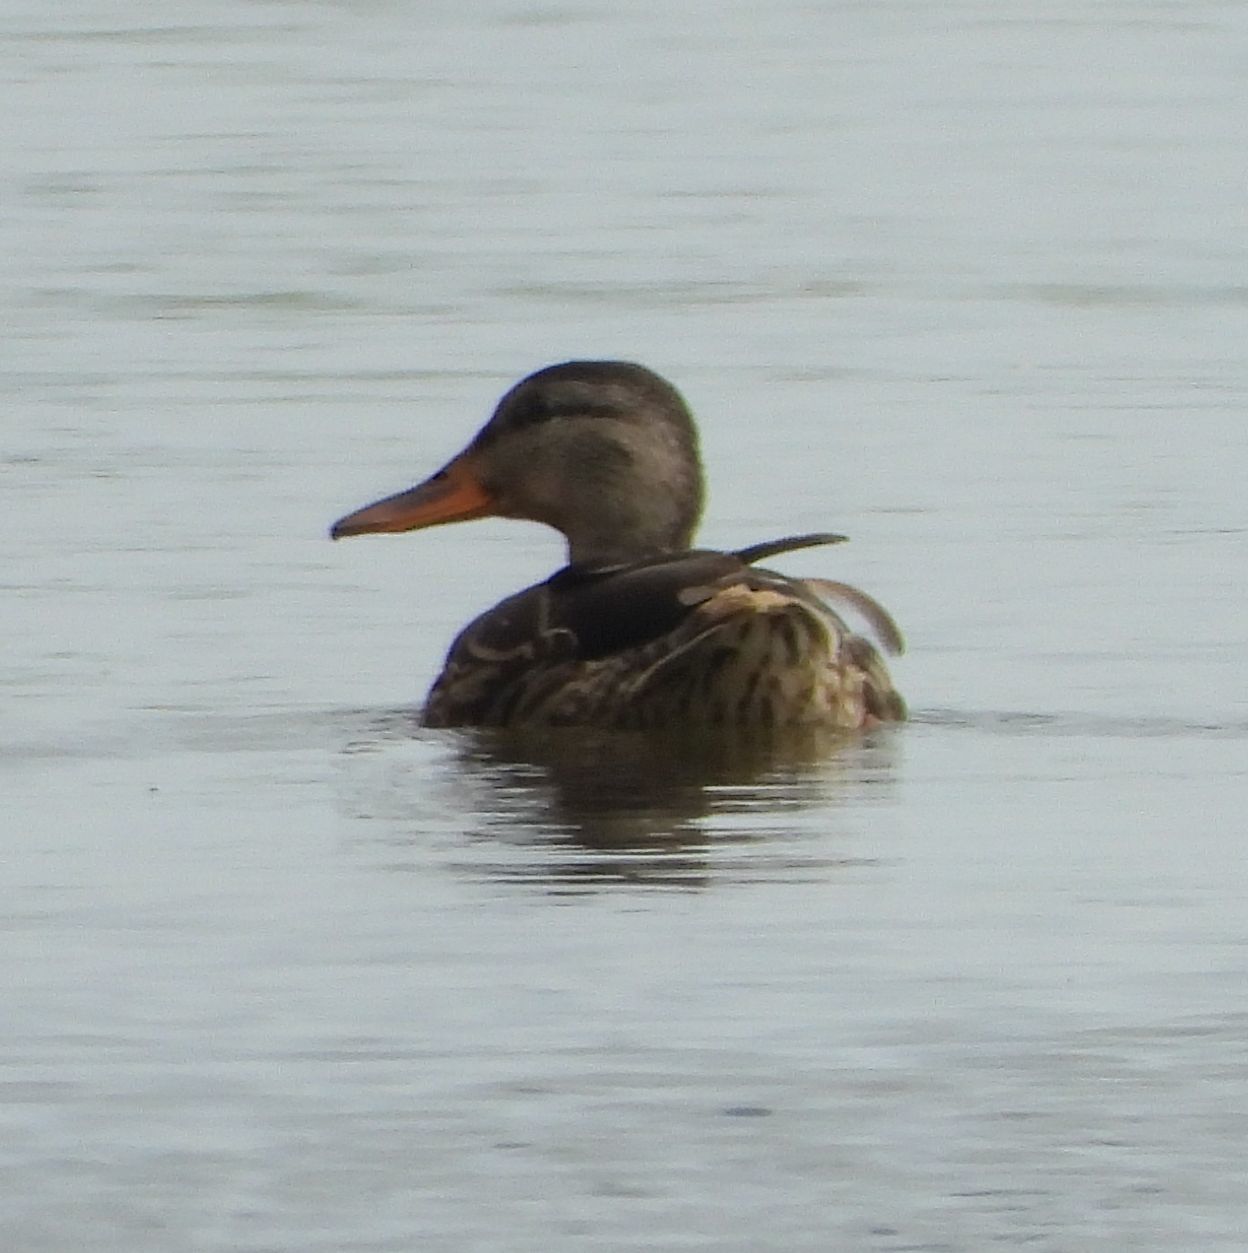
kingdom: Animalia
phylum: Chordata
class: Aves
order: Anseriformes
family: Anatidae
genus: Anas
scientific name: Anas platyrhynchos
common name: Mallard
